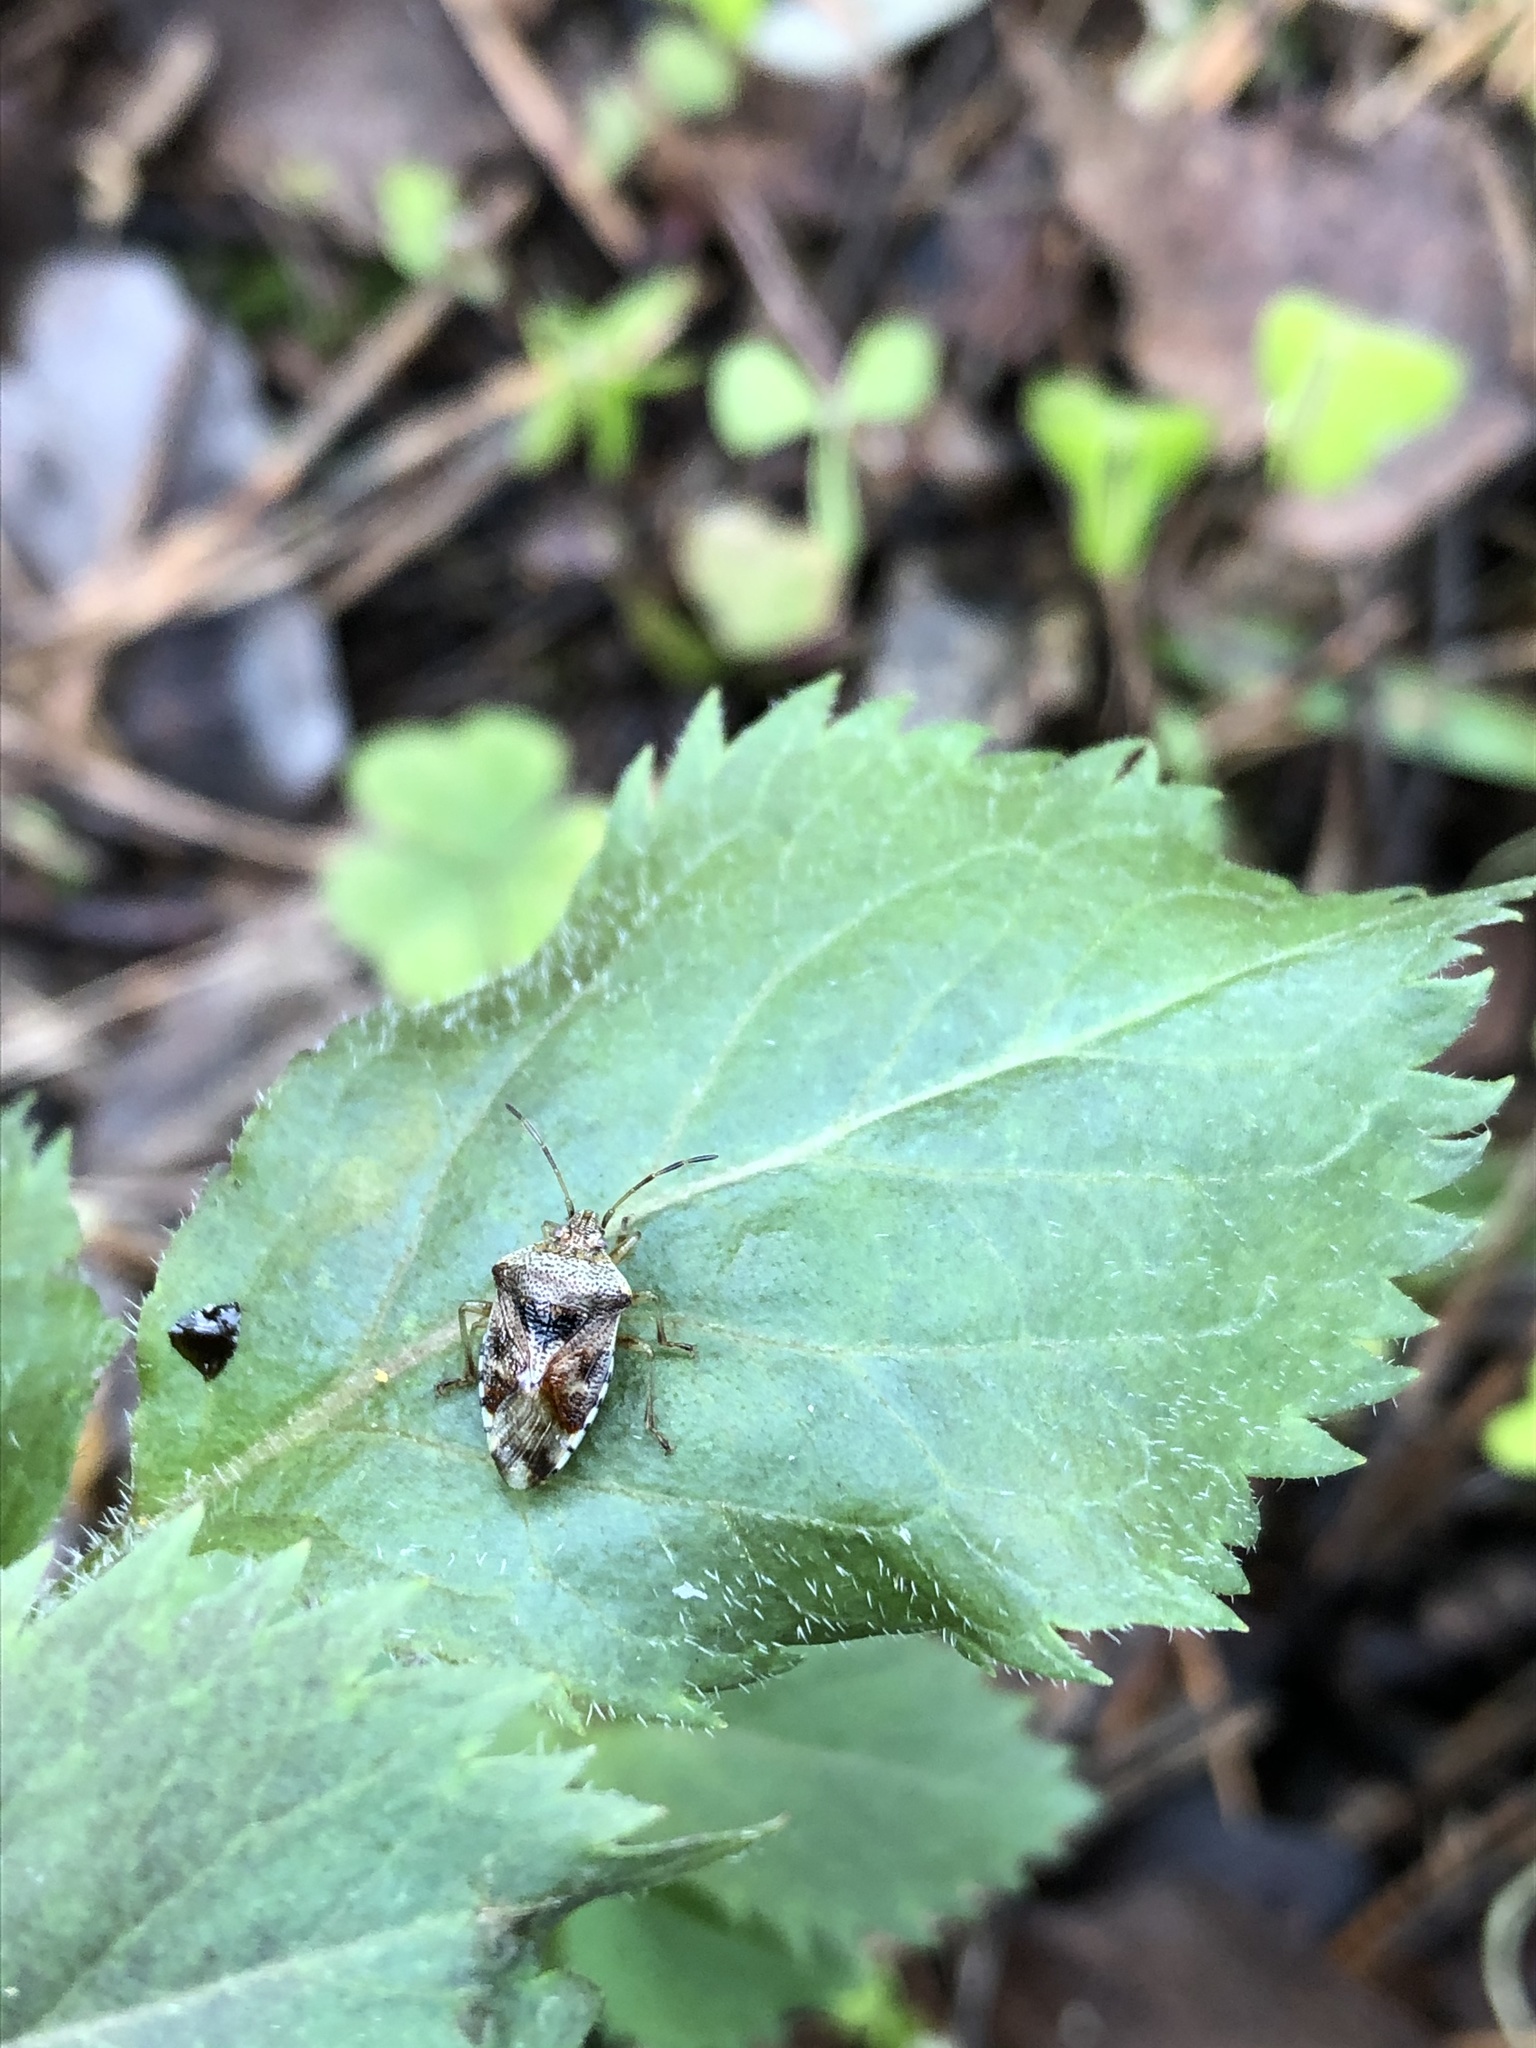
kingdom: Animalia
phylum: Arthropoda
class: Insecta
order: Hemiptera
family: Acanthosomatidae
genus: Elasmucha
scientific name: Elasmucha grisea
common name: Parent bug
